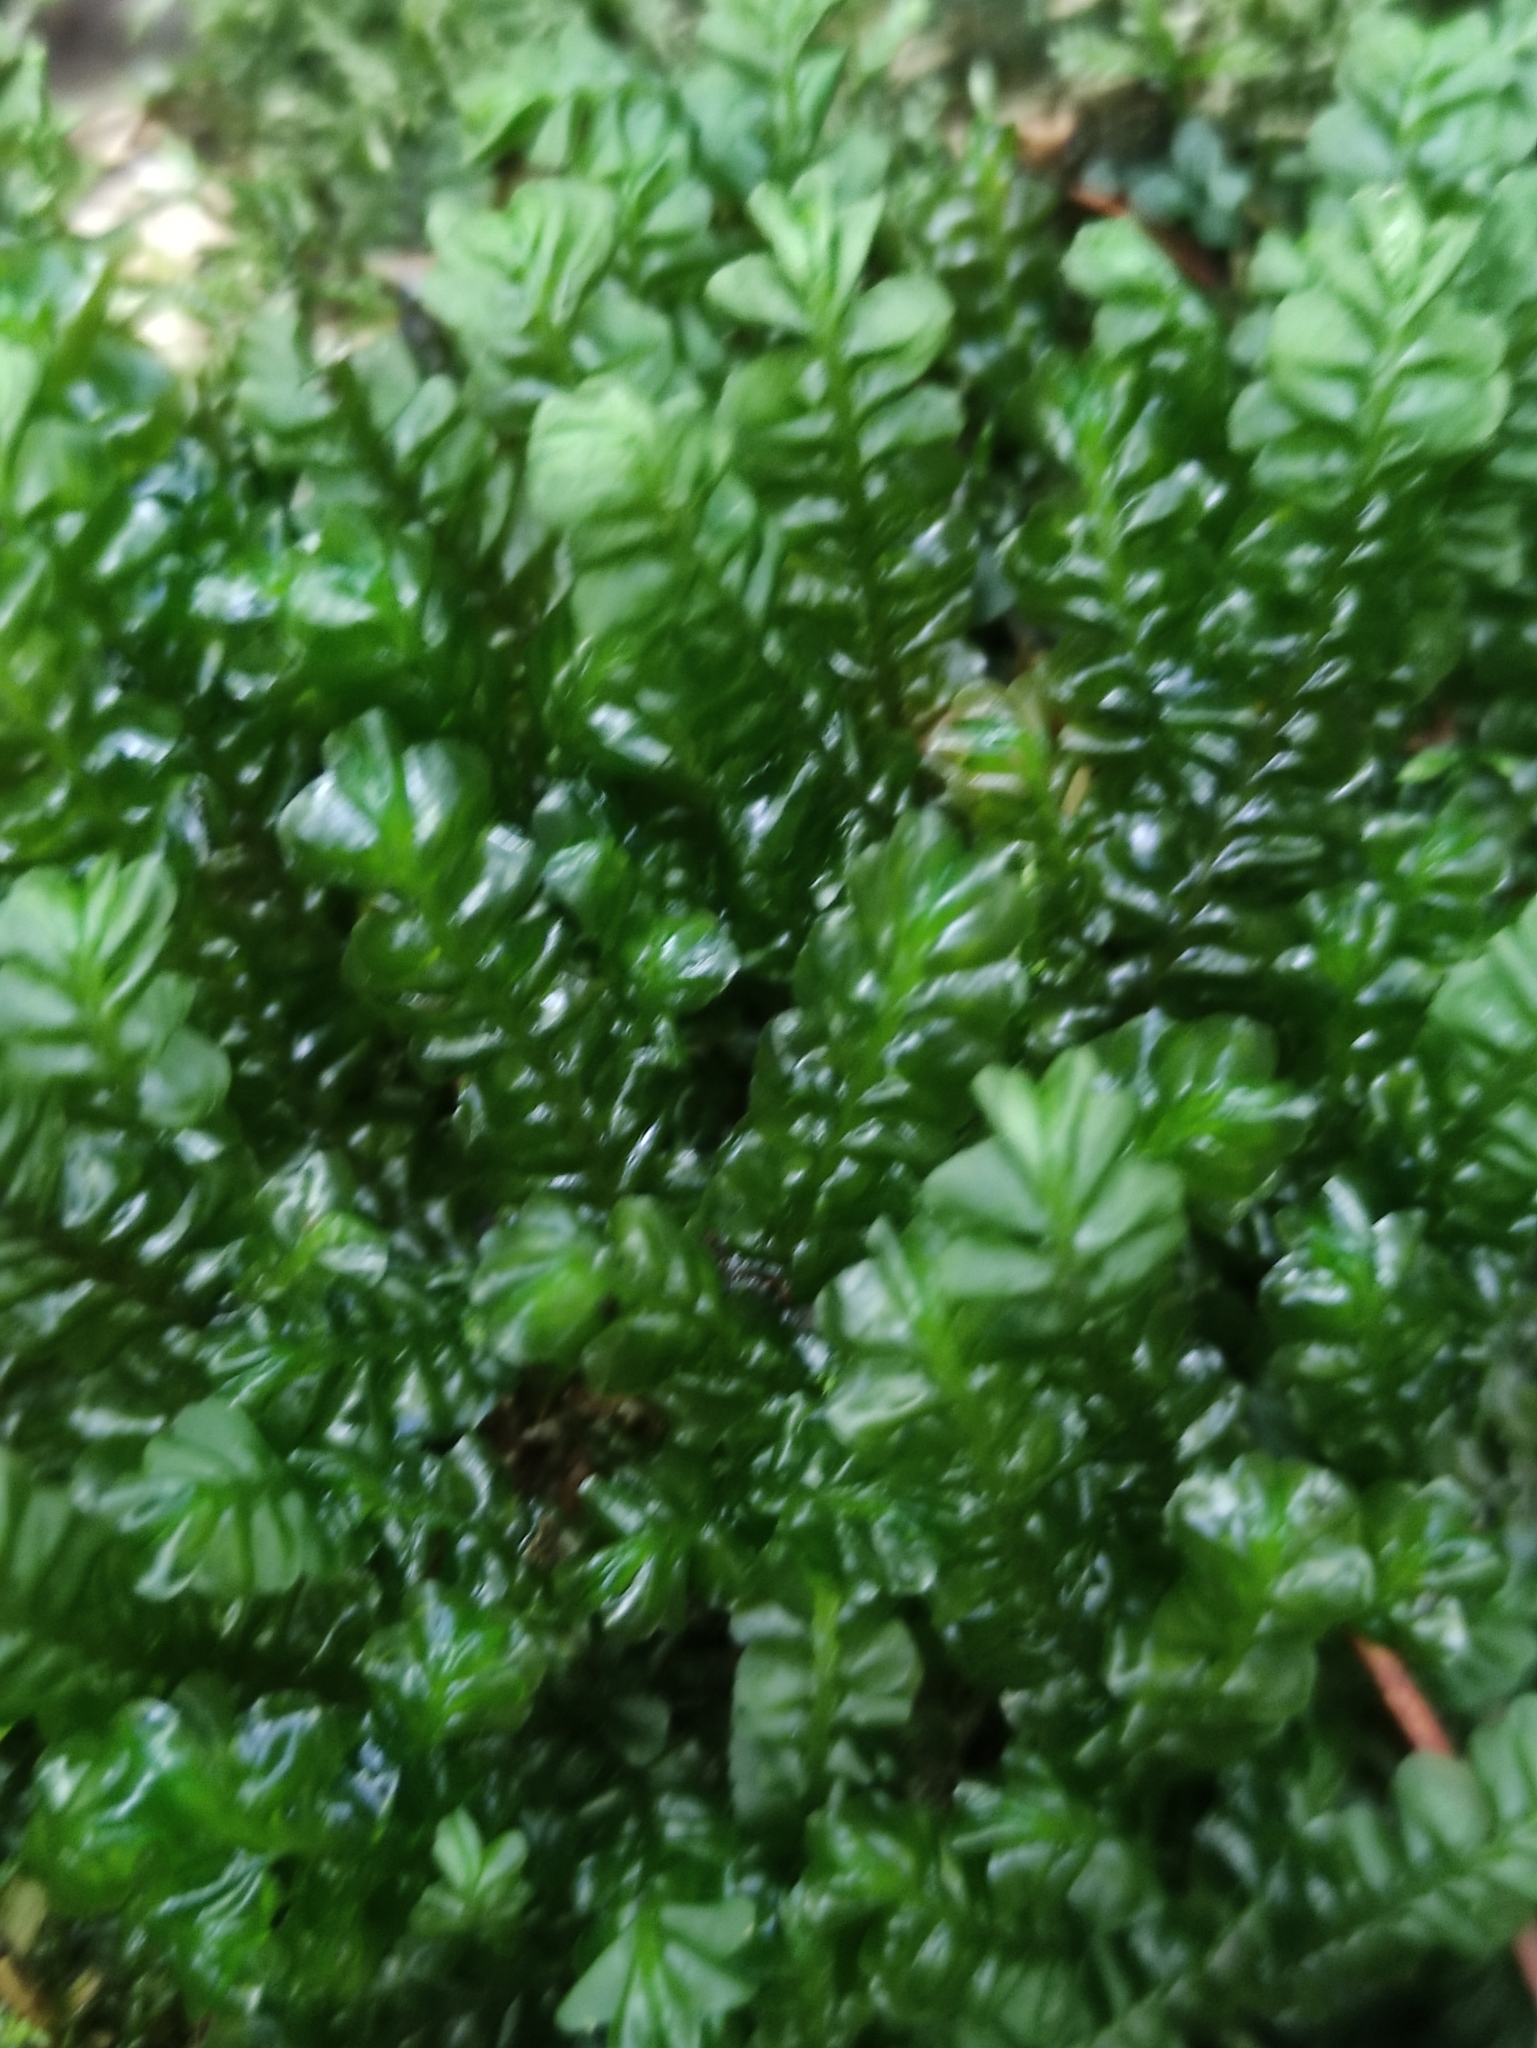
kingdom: Plantae
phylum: Marchantiophyta
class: Jungermanniopsida
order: Jungermanniales
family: Plagiochilaceae
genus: Plagiochila
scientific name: Plagiochila asplenioides
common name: Greater featherwort
